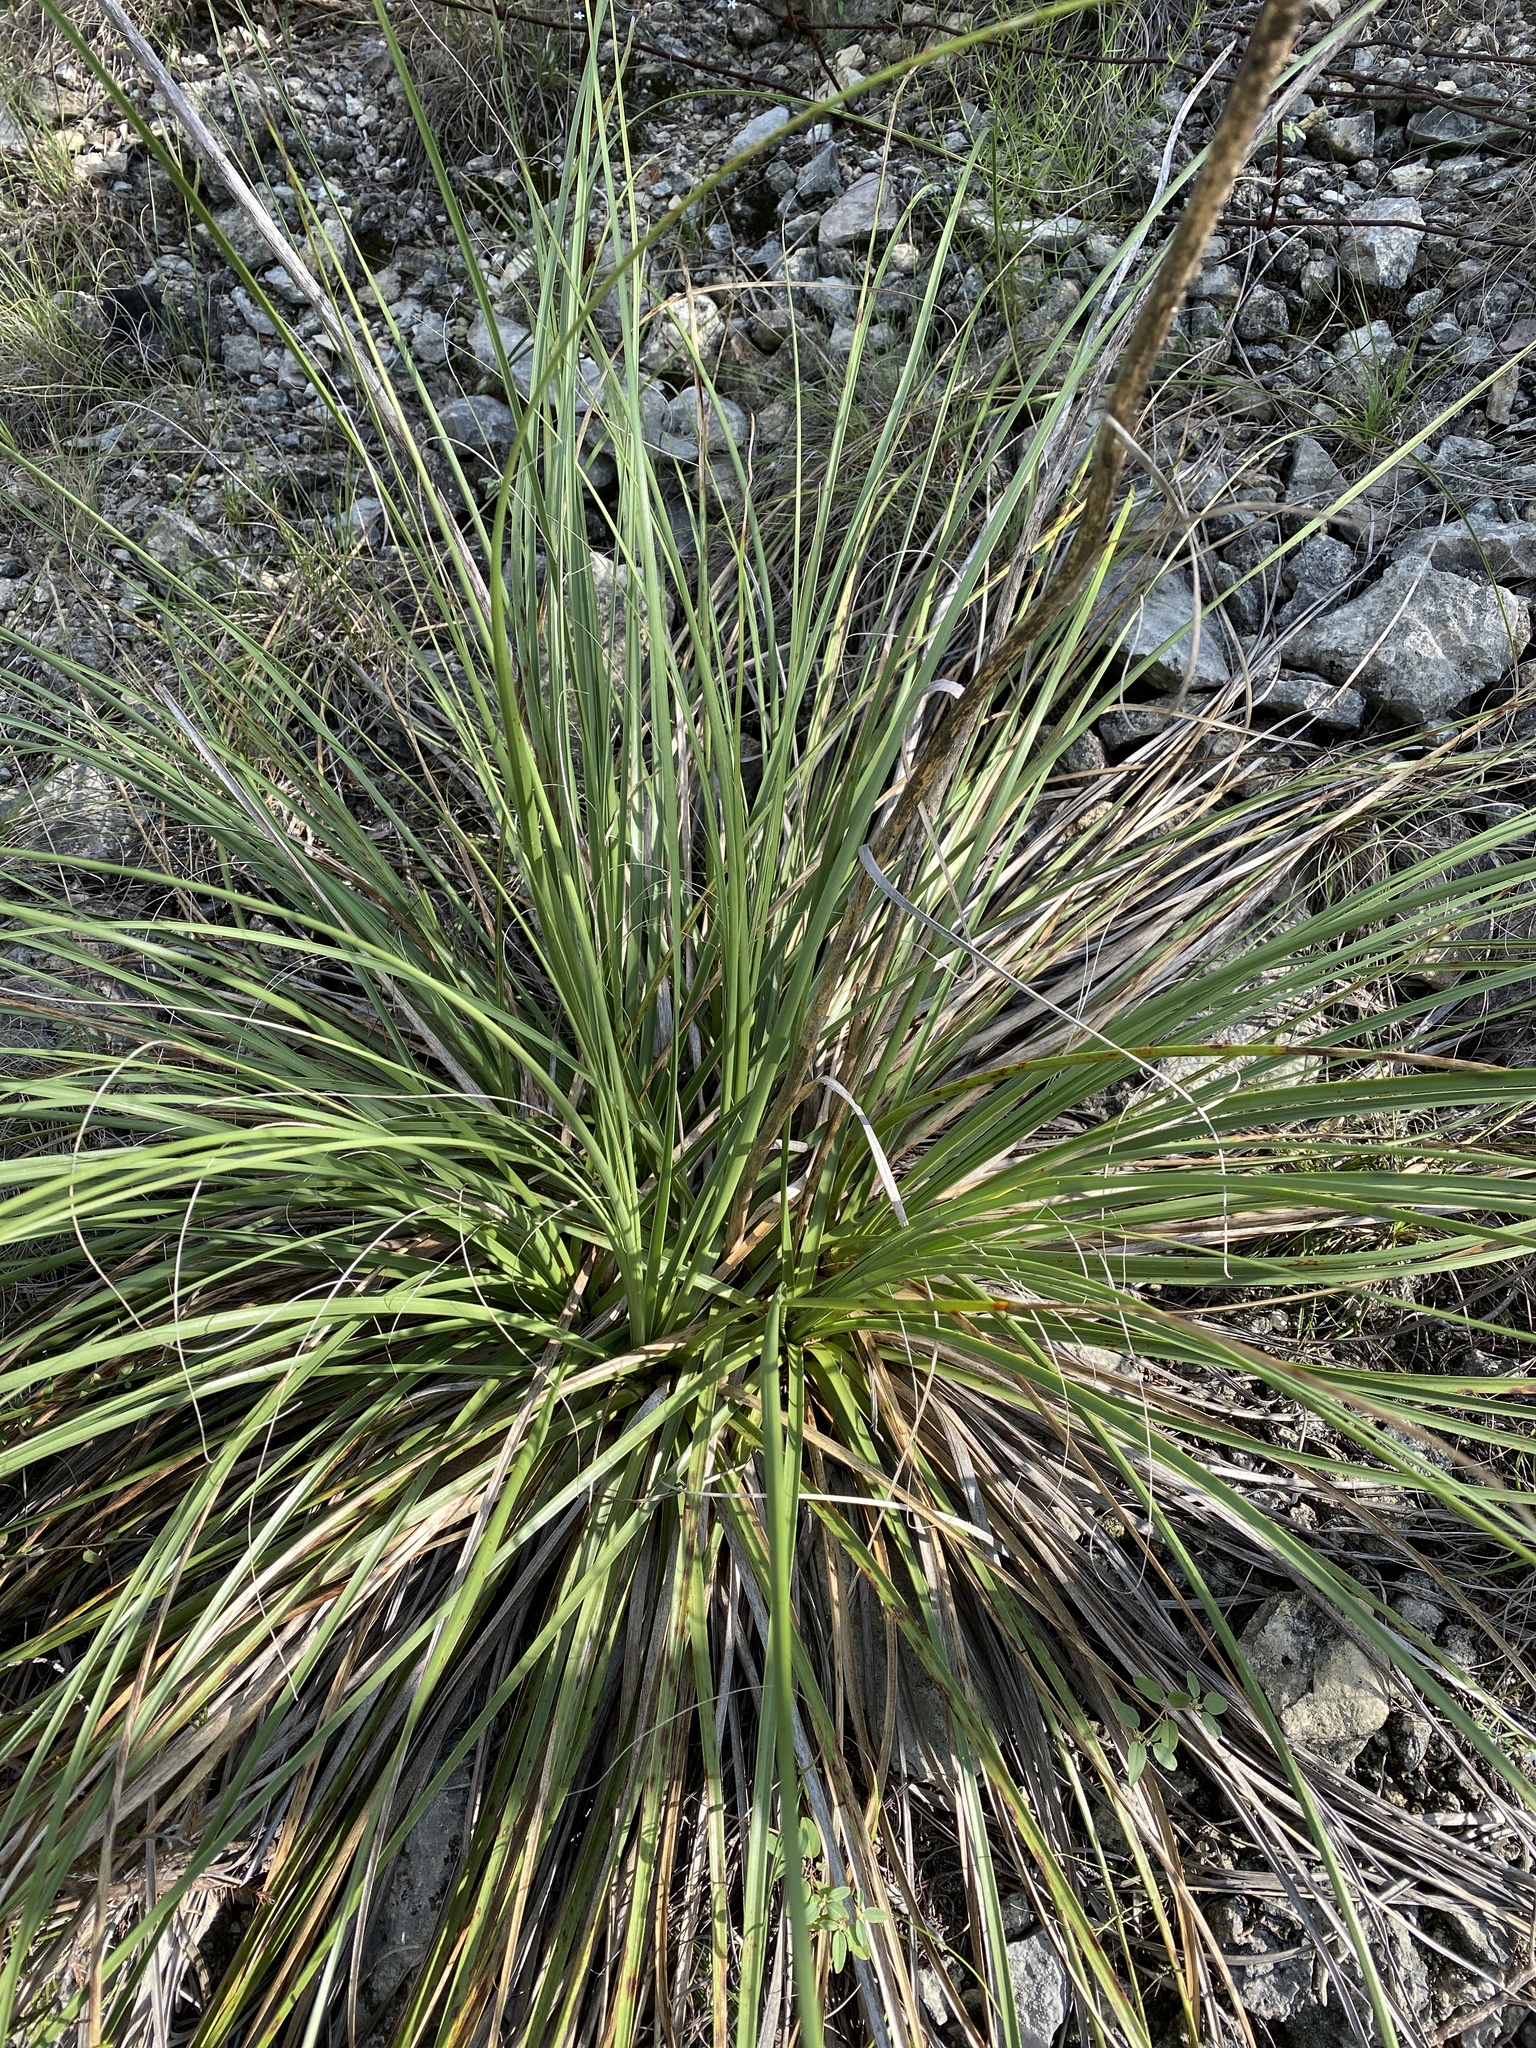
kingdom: Plantae
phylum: Tracheophyta
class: Liliopsida
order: Asparagales
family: Asparagaceae
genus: Nolina
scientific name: Nolina lindheimeriana
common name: Lindheimer's bear-grass
